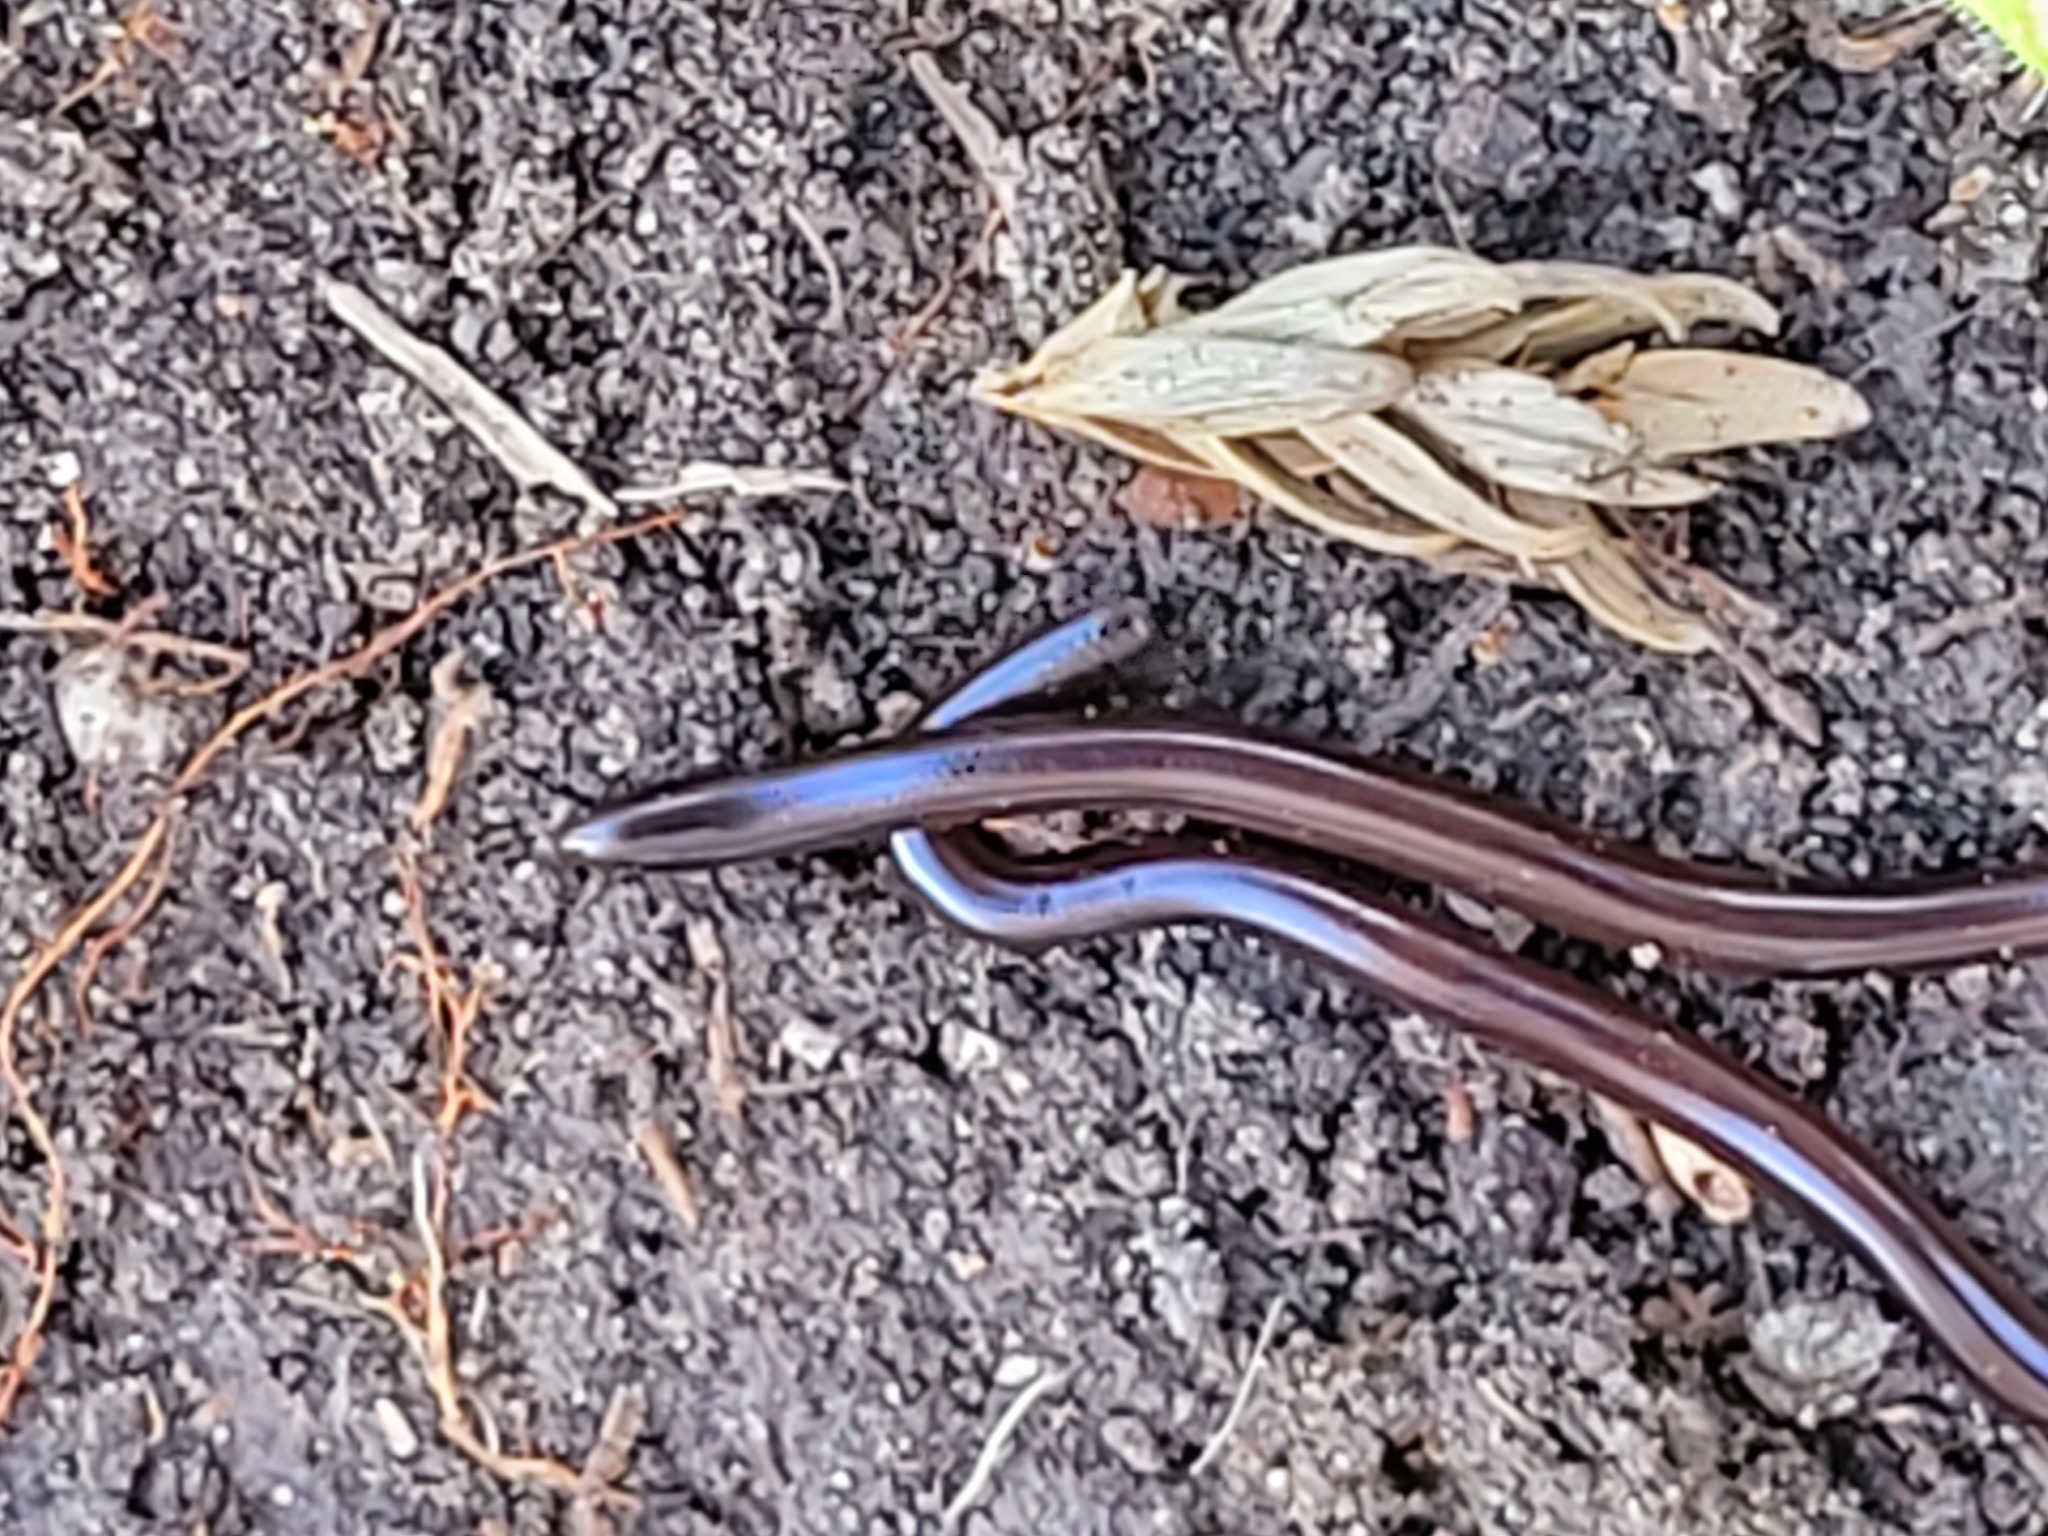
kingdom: Animalia
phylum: Chordata
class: Squamata
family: Typhlopidae
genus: Indotyphlops
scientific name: Indotyphlops braminus
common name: Brahminy blindsnake
